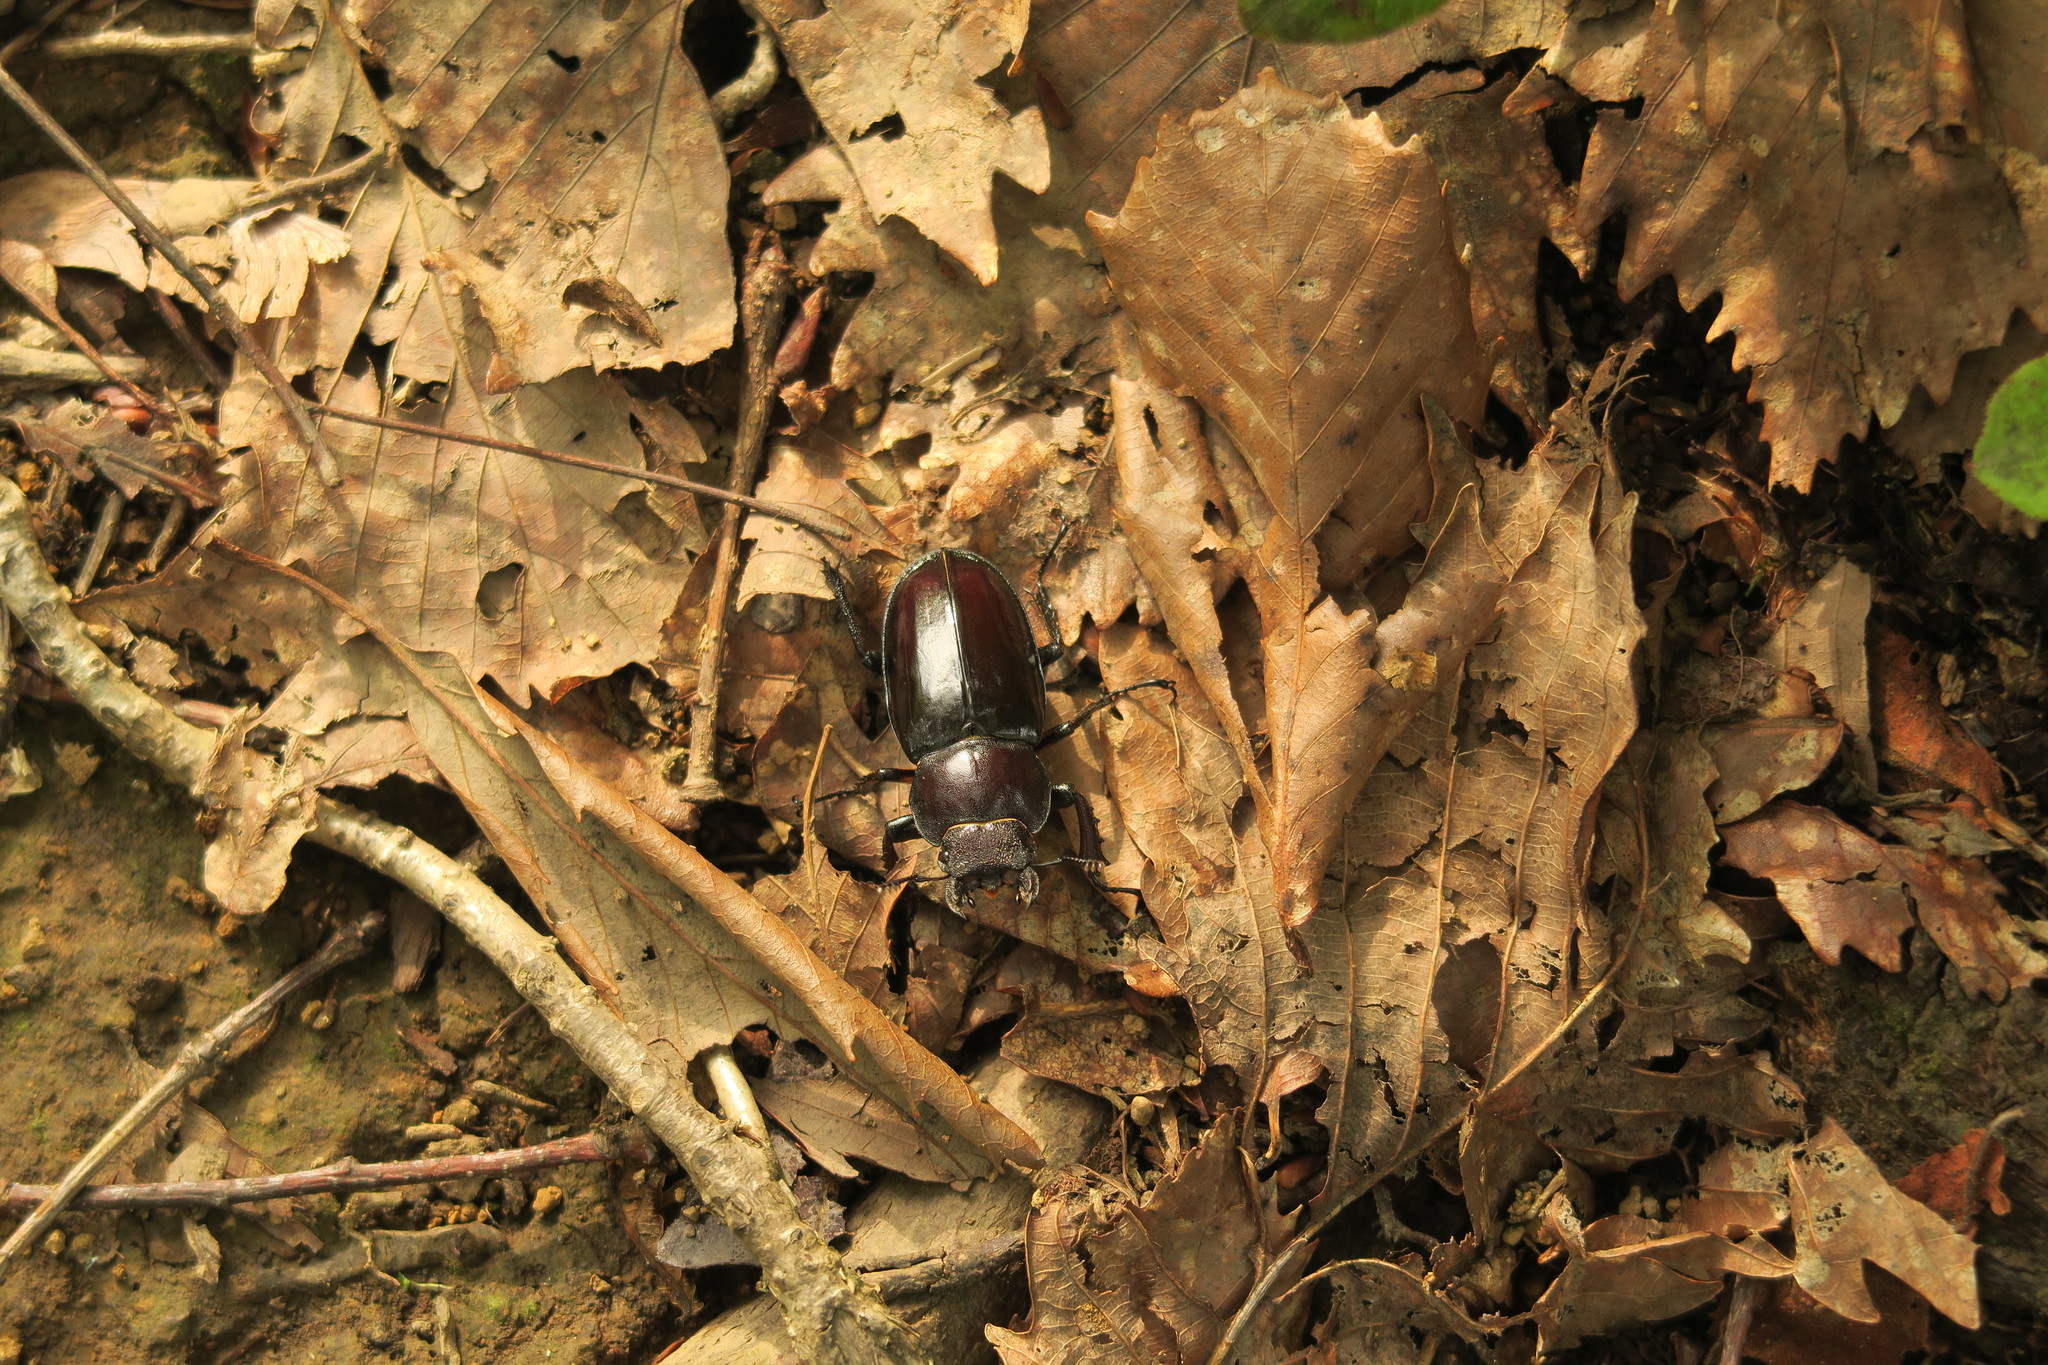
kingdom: Animalia
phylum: Arthropoda
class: Insecta
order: Coleoptera
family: Lucanidae
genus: Lucanus
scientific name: Lucanus maculifemoratus
